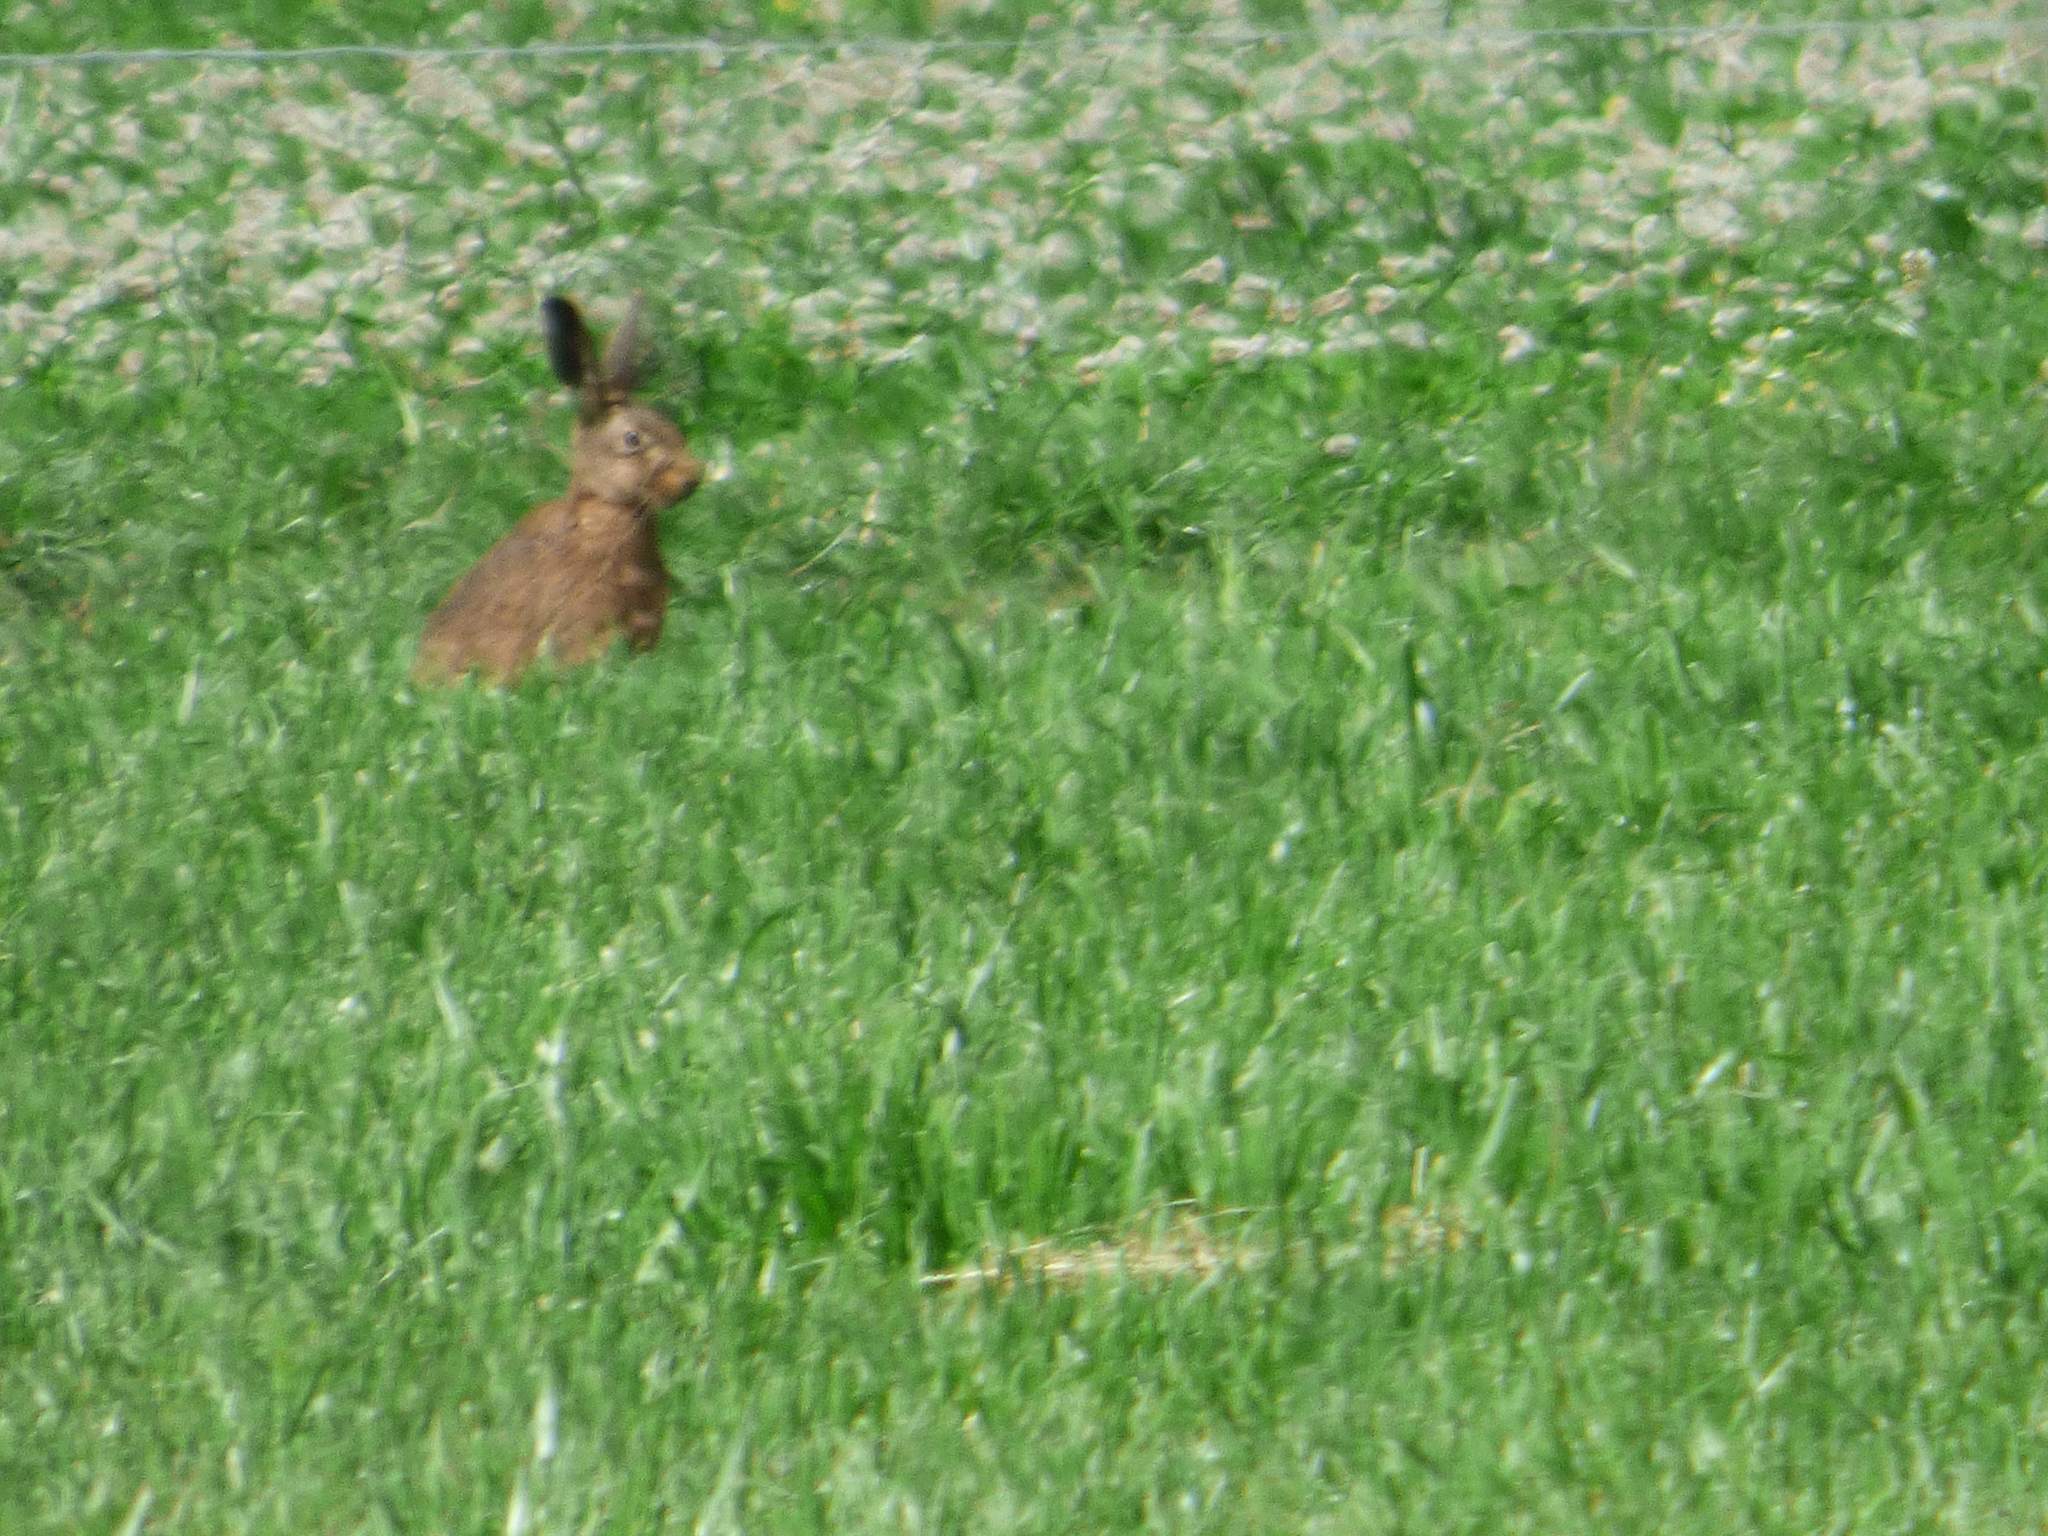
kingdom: Animalia
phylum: Chordata
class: Mammalia
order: Lagomorpha
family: Leporidae
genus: Lepus
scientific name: Lepus europaeus
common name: European hare
